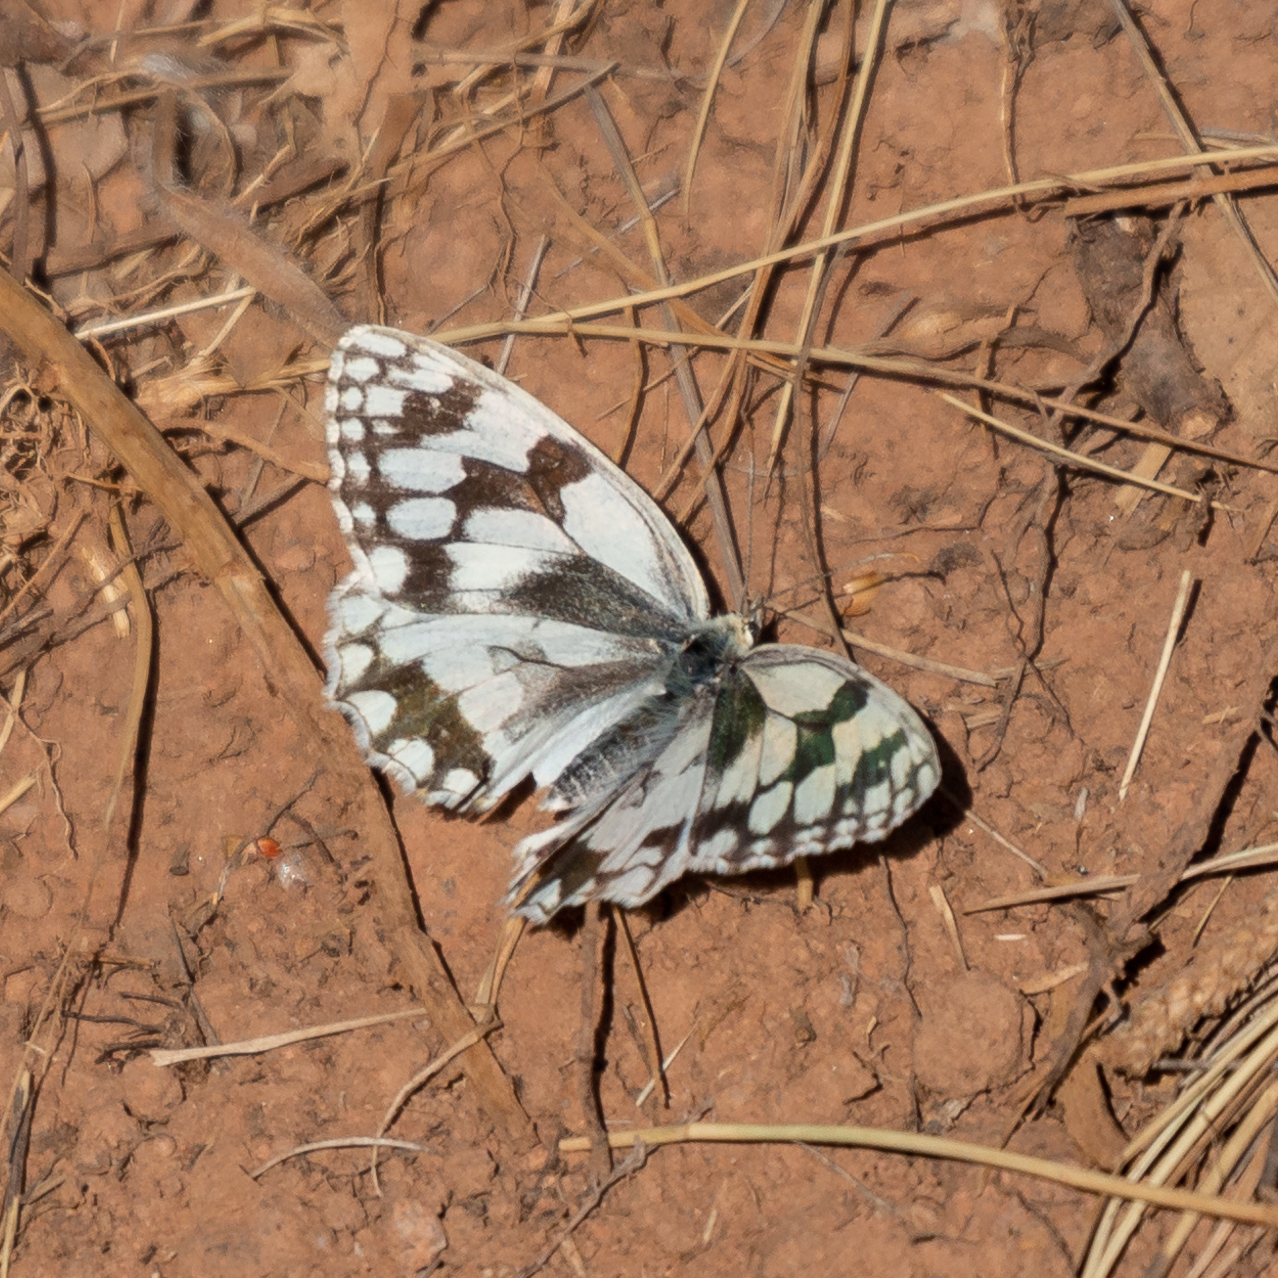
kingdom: Animalia
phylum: Arthropoda
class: Insecta
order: Lepidoptera
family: Nymphalidae
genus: Melanargia
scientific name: Melanargia lachesis
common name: Iberian marbled white
